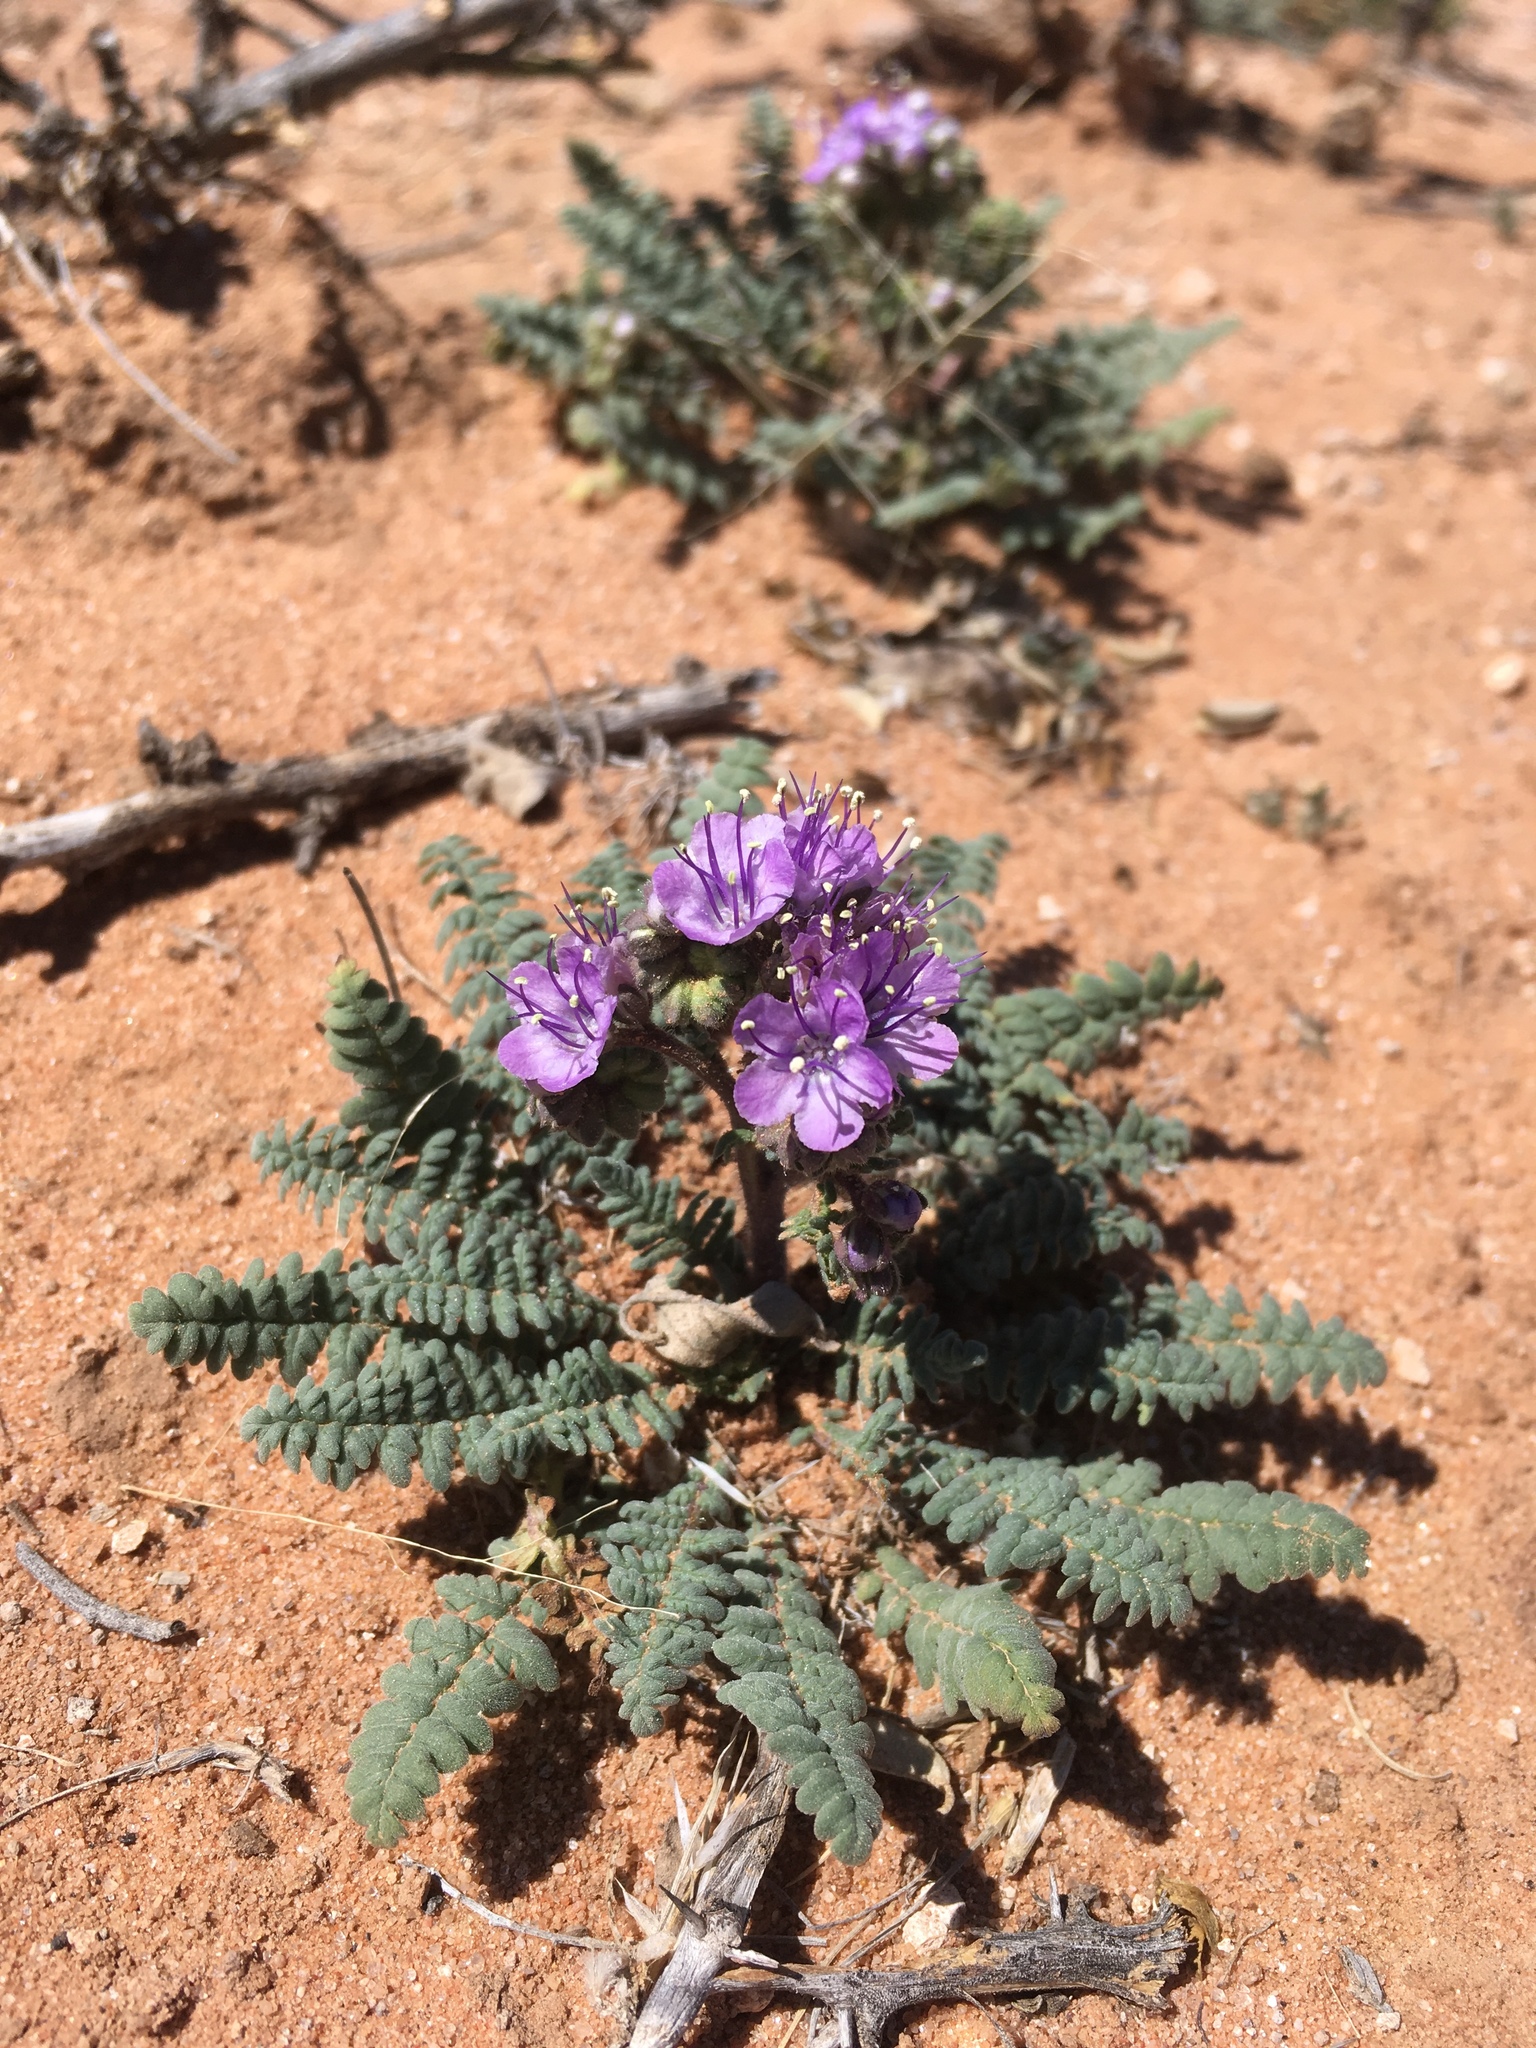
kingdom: Plantae
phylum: Tracheophyta
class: Magnoliopsida
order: Boraginales
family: Hydrophyllaceae
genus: Phacelia
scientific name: Phacelia popei
